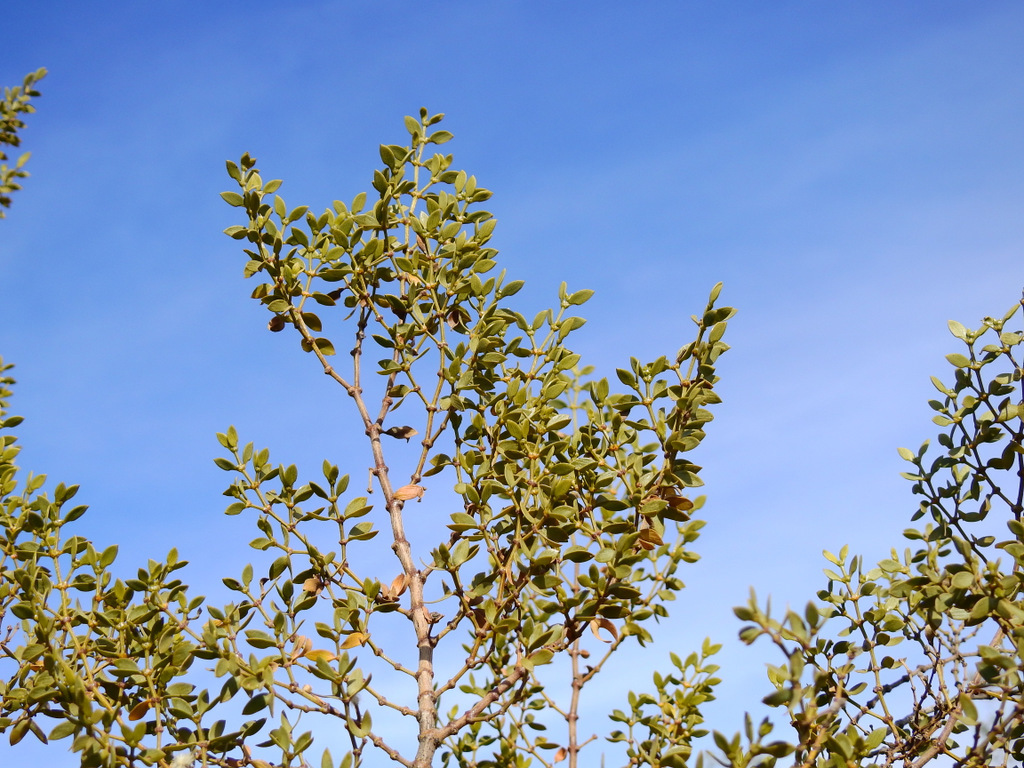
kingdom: Plantae
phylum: Tracheophyta
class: Magnoliopsida
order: Zygophyllales
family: Zygophyllaceae
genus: Larrea
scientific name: Larrea divaricata
